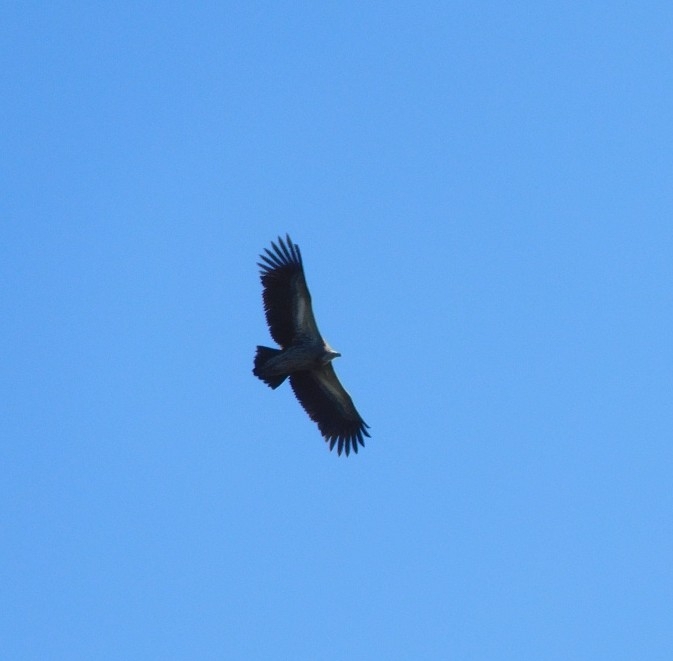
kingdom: Animalia
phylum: Chordata
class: Aves
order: Accipitriformes
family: Accipitridae
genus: Gyps
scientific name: Gyps himalayensis
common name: Himalayan griffon
